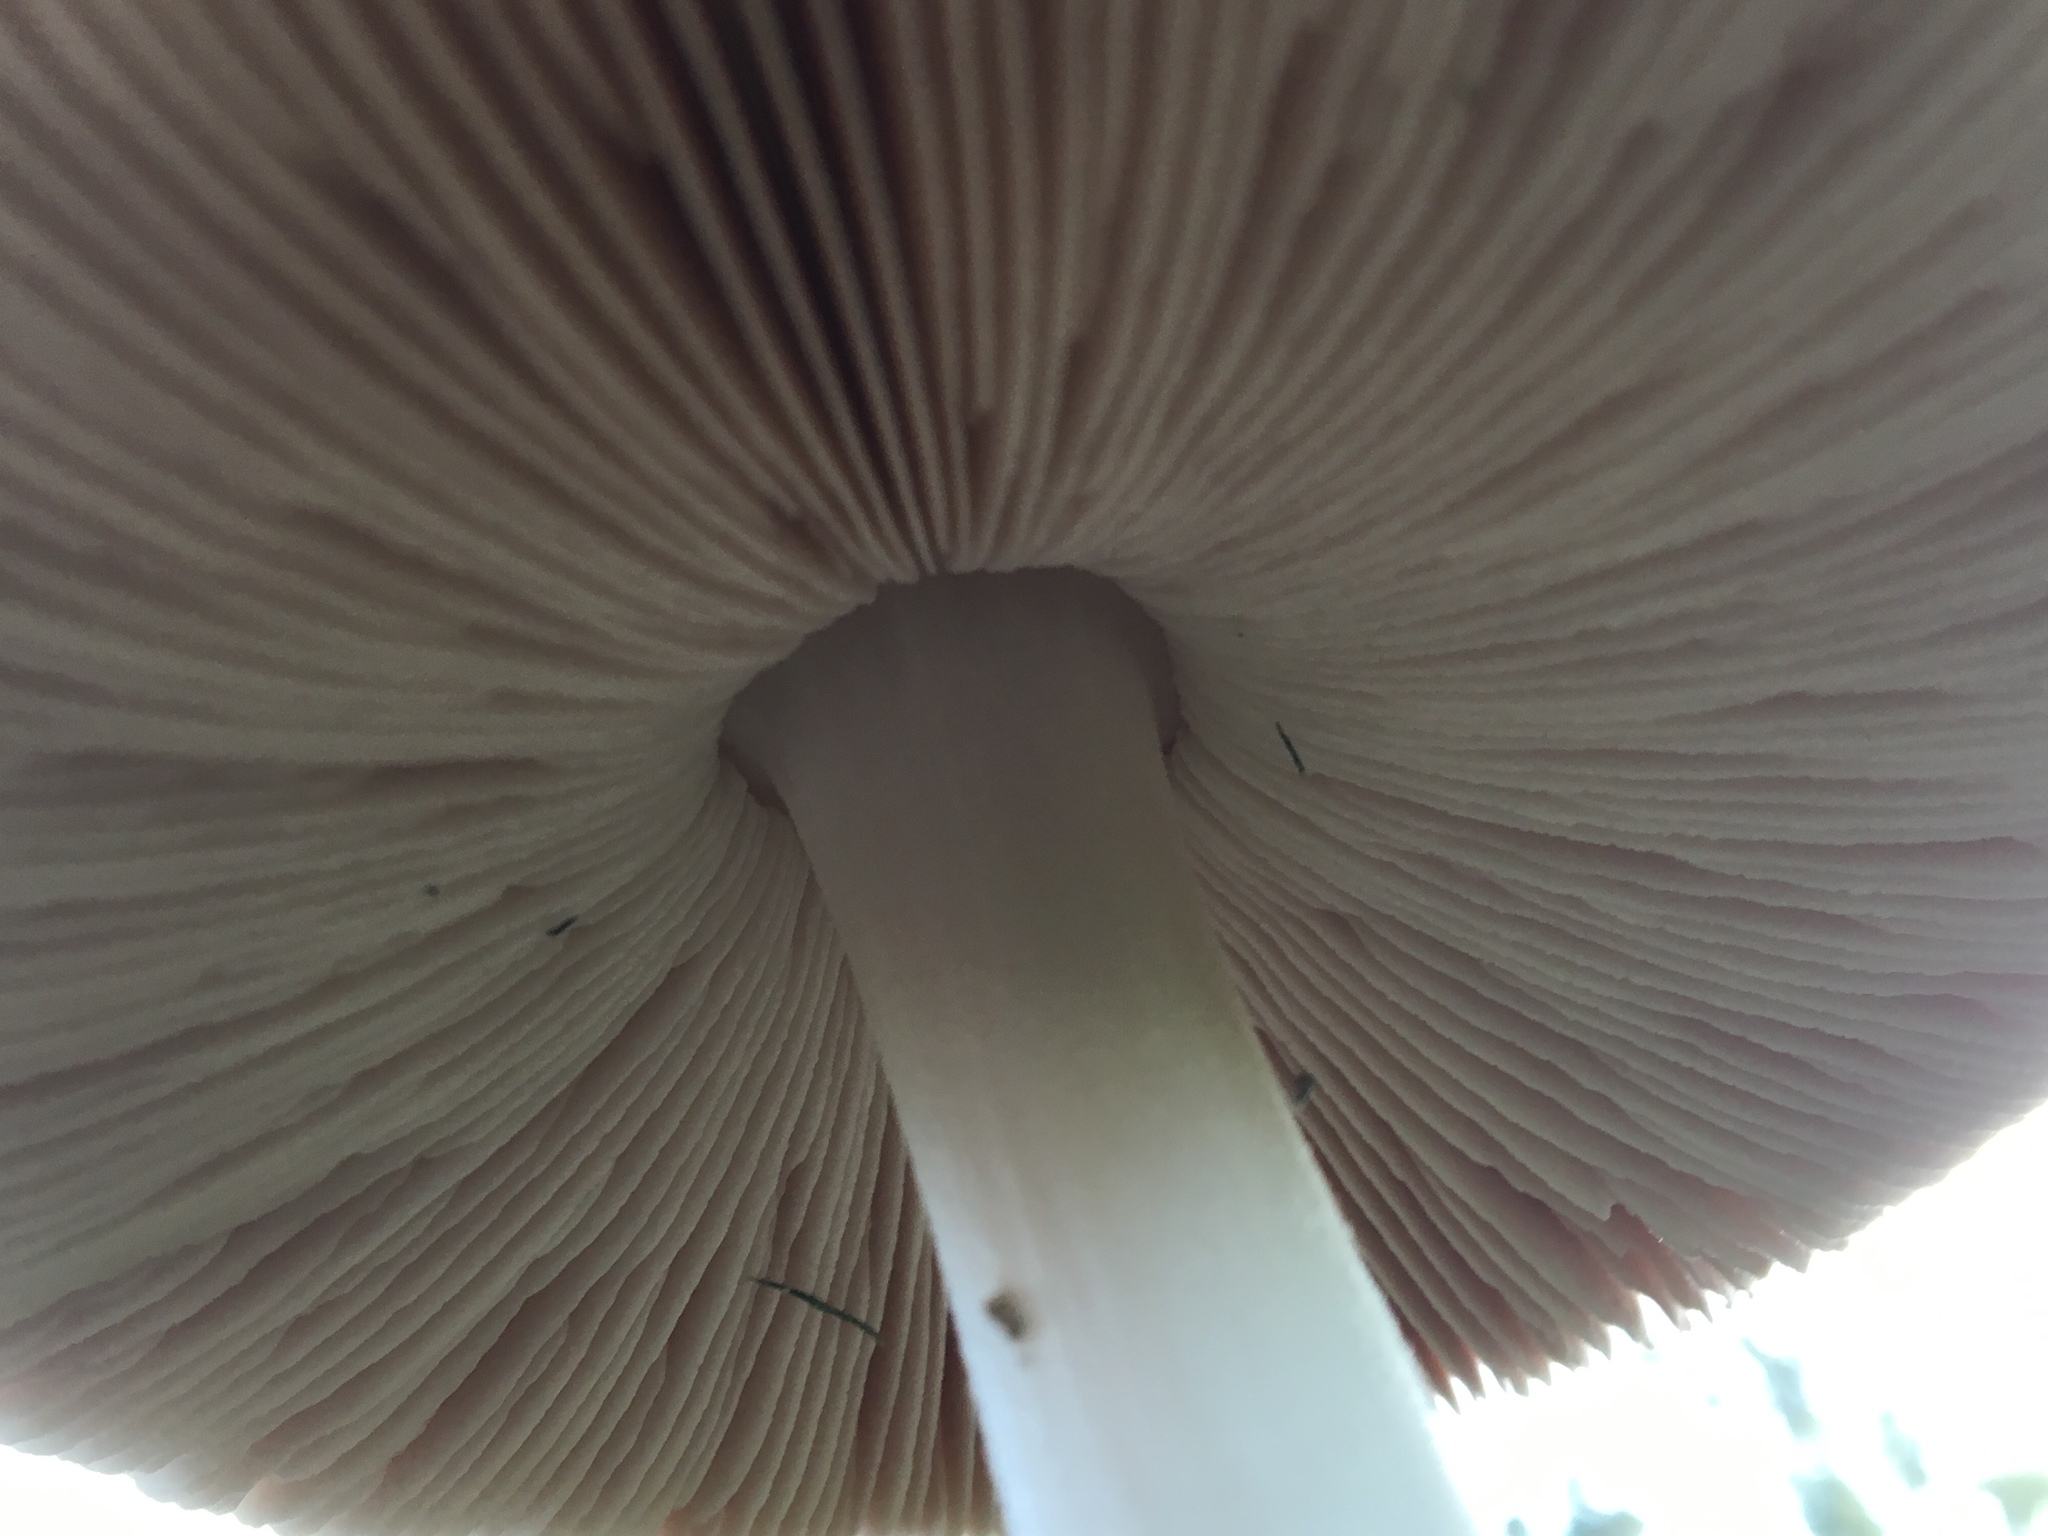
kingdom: Fungi
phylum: Basidiomycota
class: Agaricomycetes
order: Agaricales
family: Pluteaceae
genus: Volvopluteus
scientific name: Volvopluteus gloiocephalus
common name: Stubble rosegill
